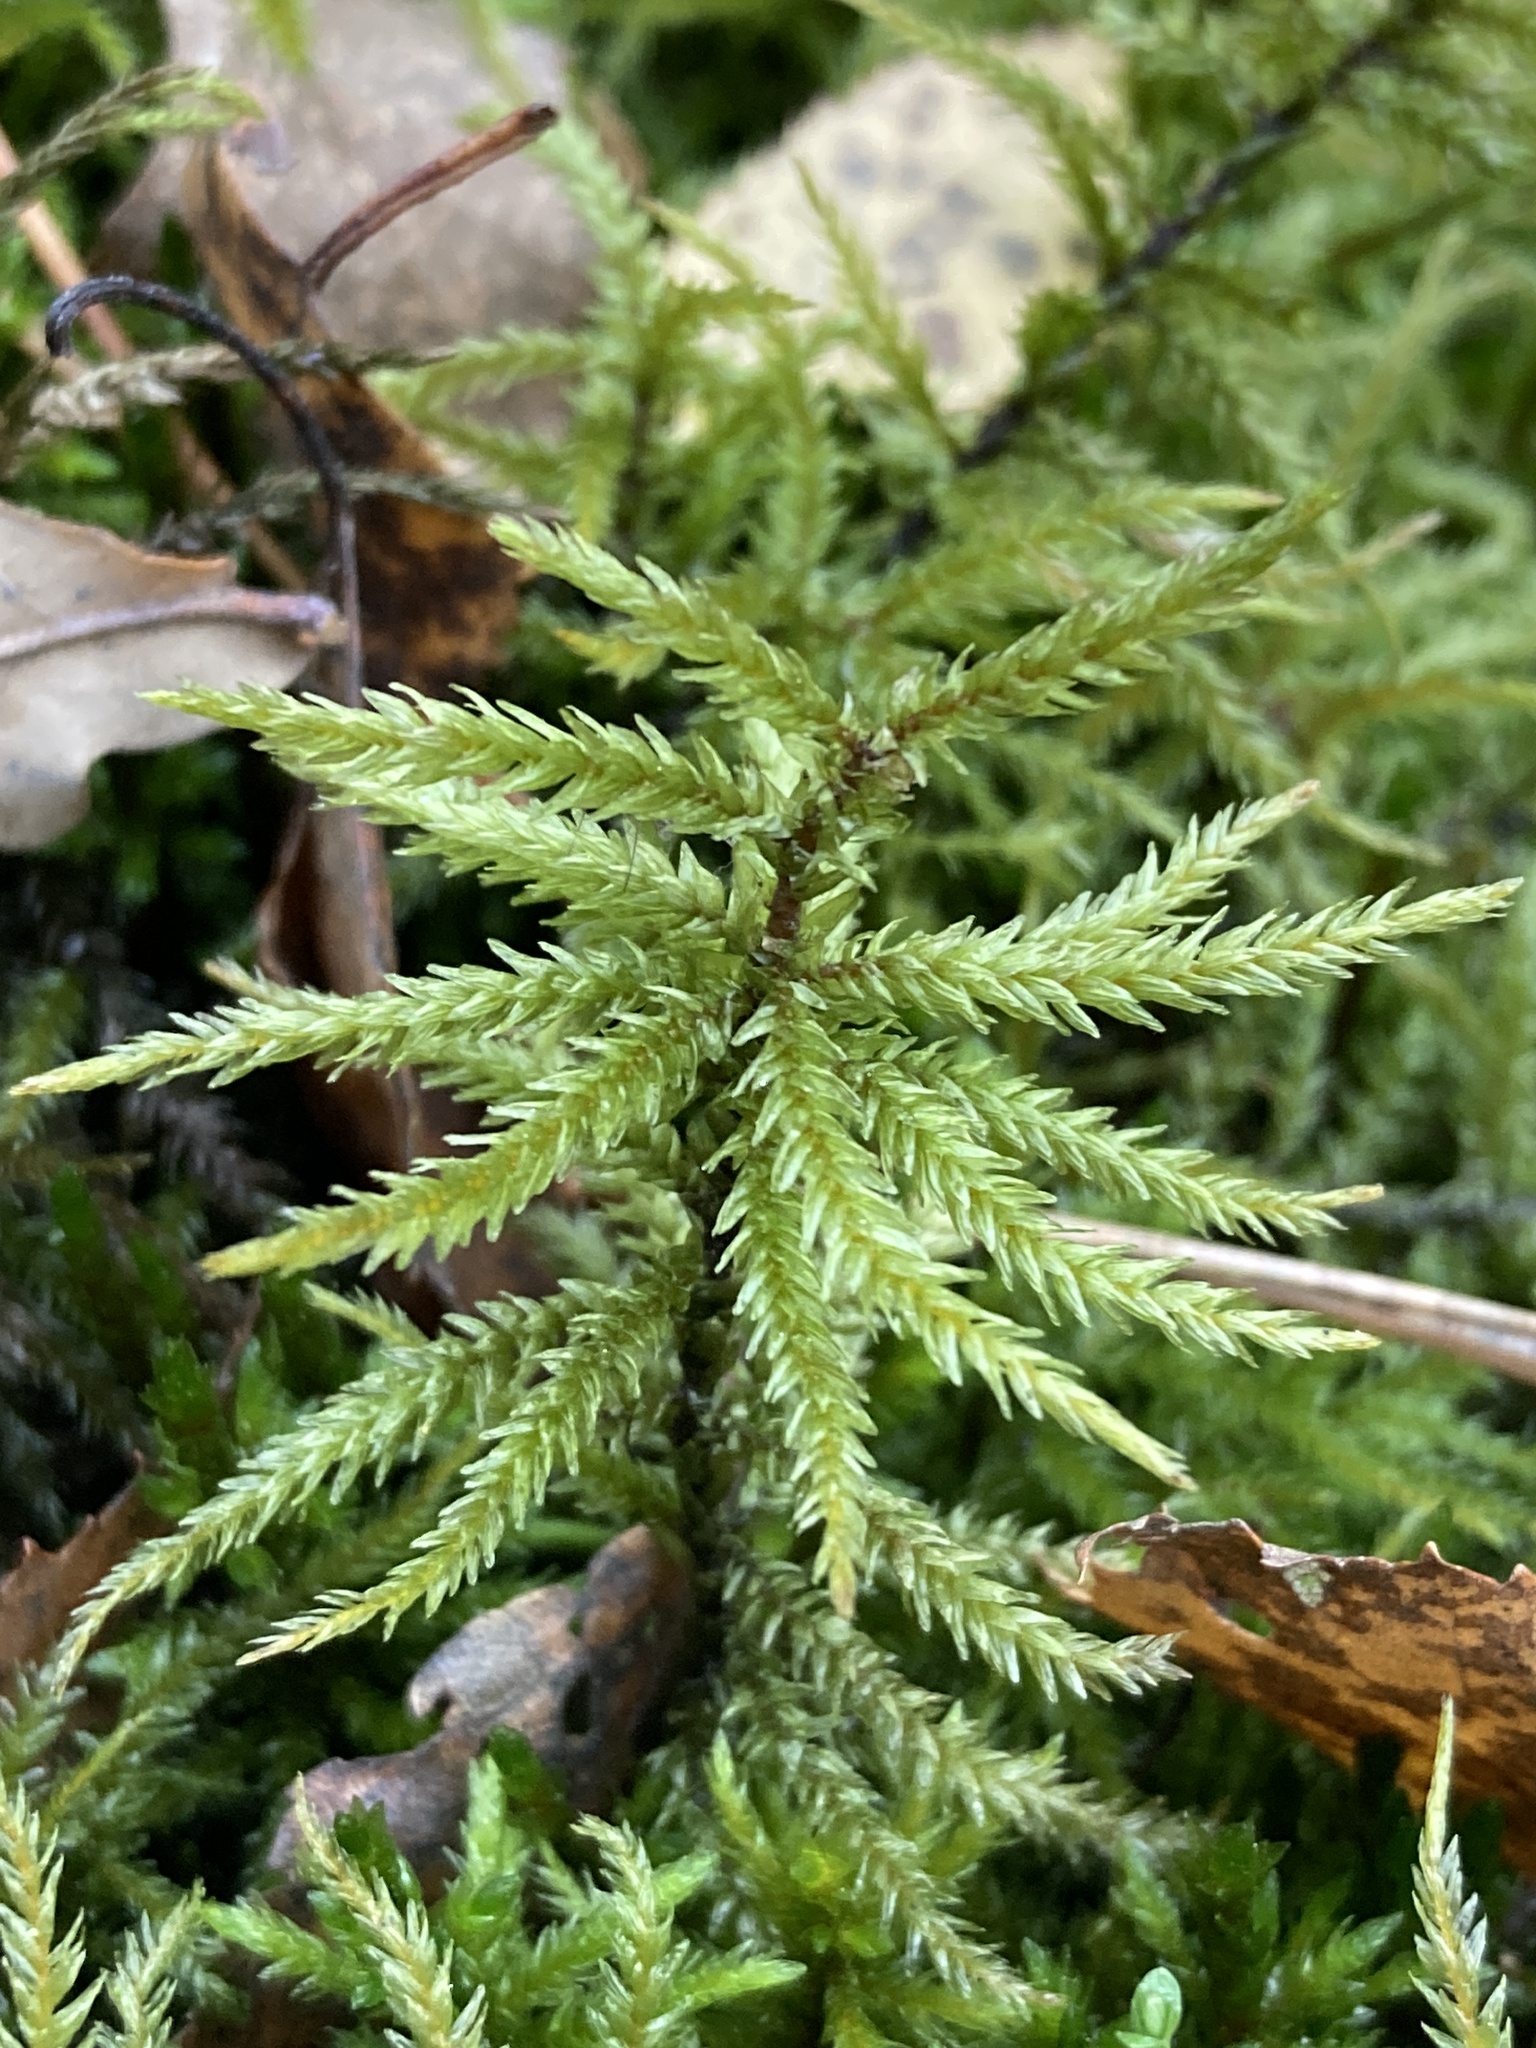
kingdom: Plantae
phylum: Bryophyta
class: Bryopsida
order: Hypnales
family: Climaciaceae
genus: Climacium
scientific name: Climacium dendroides
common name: Northern tree moss
